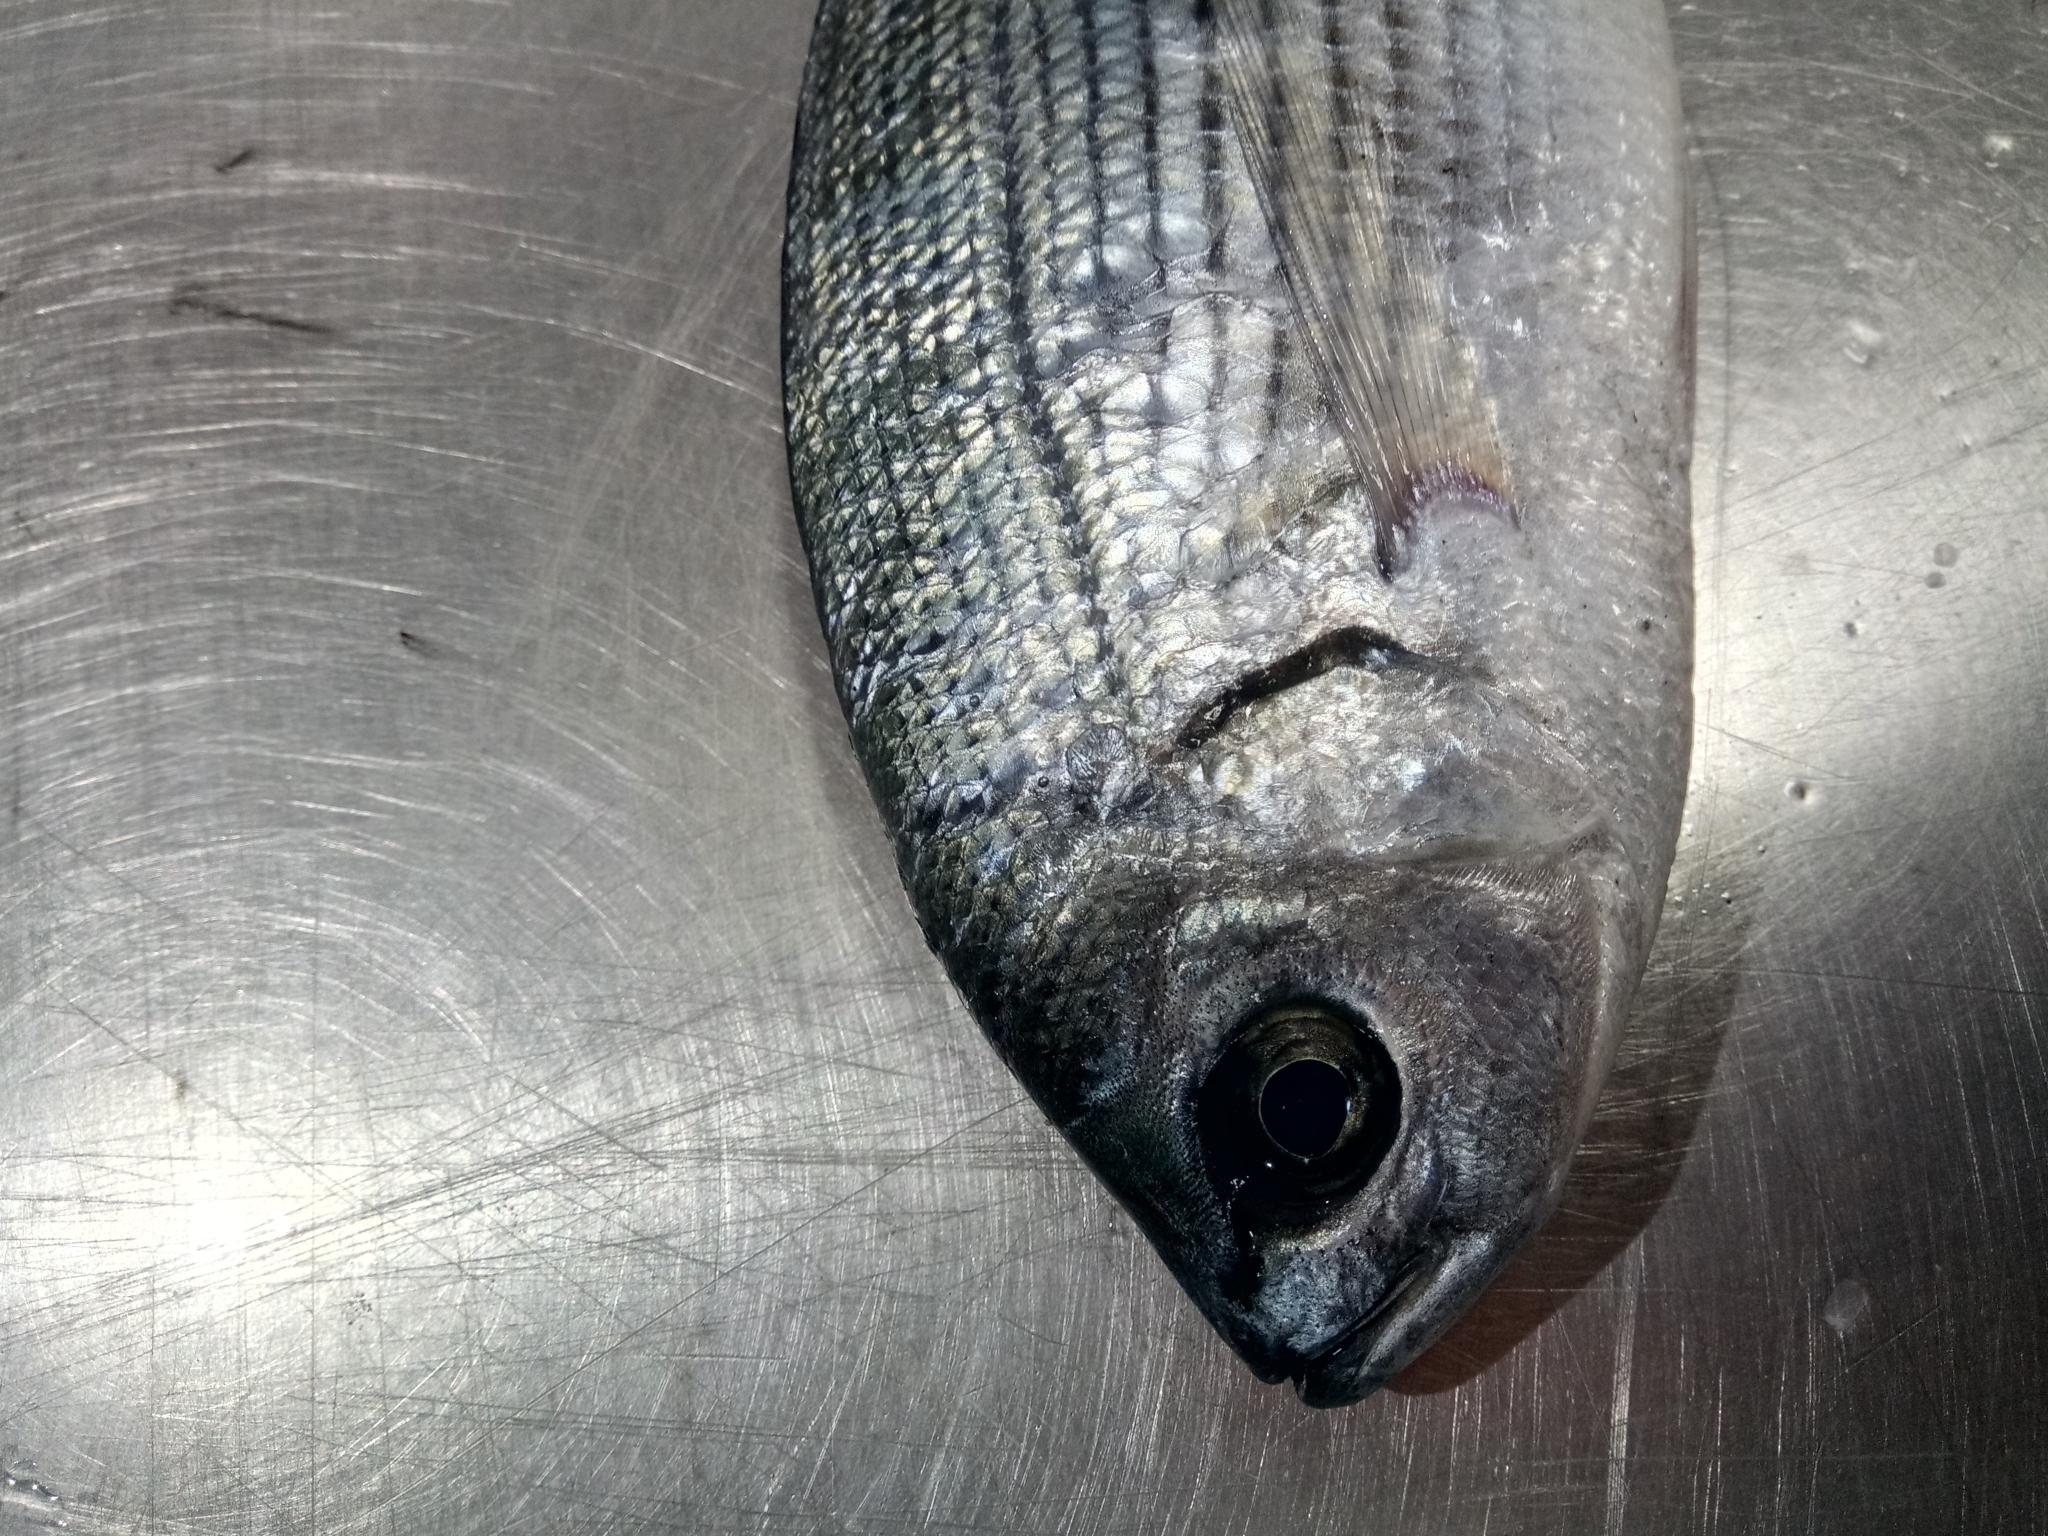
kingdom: Animalia
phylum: Chordata
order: Perciformes
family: Sparidae
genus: Oblada
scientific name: Oblada melanura
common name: Saddled seabream
